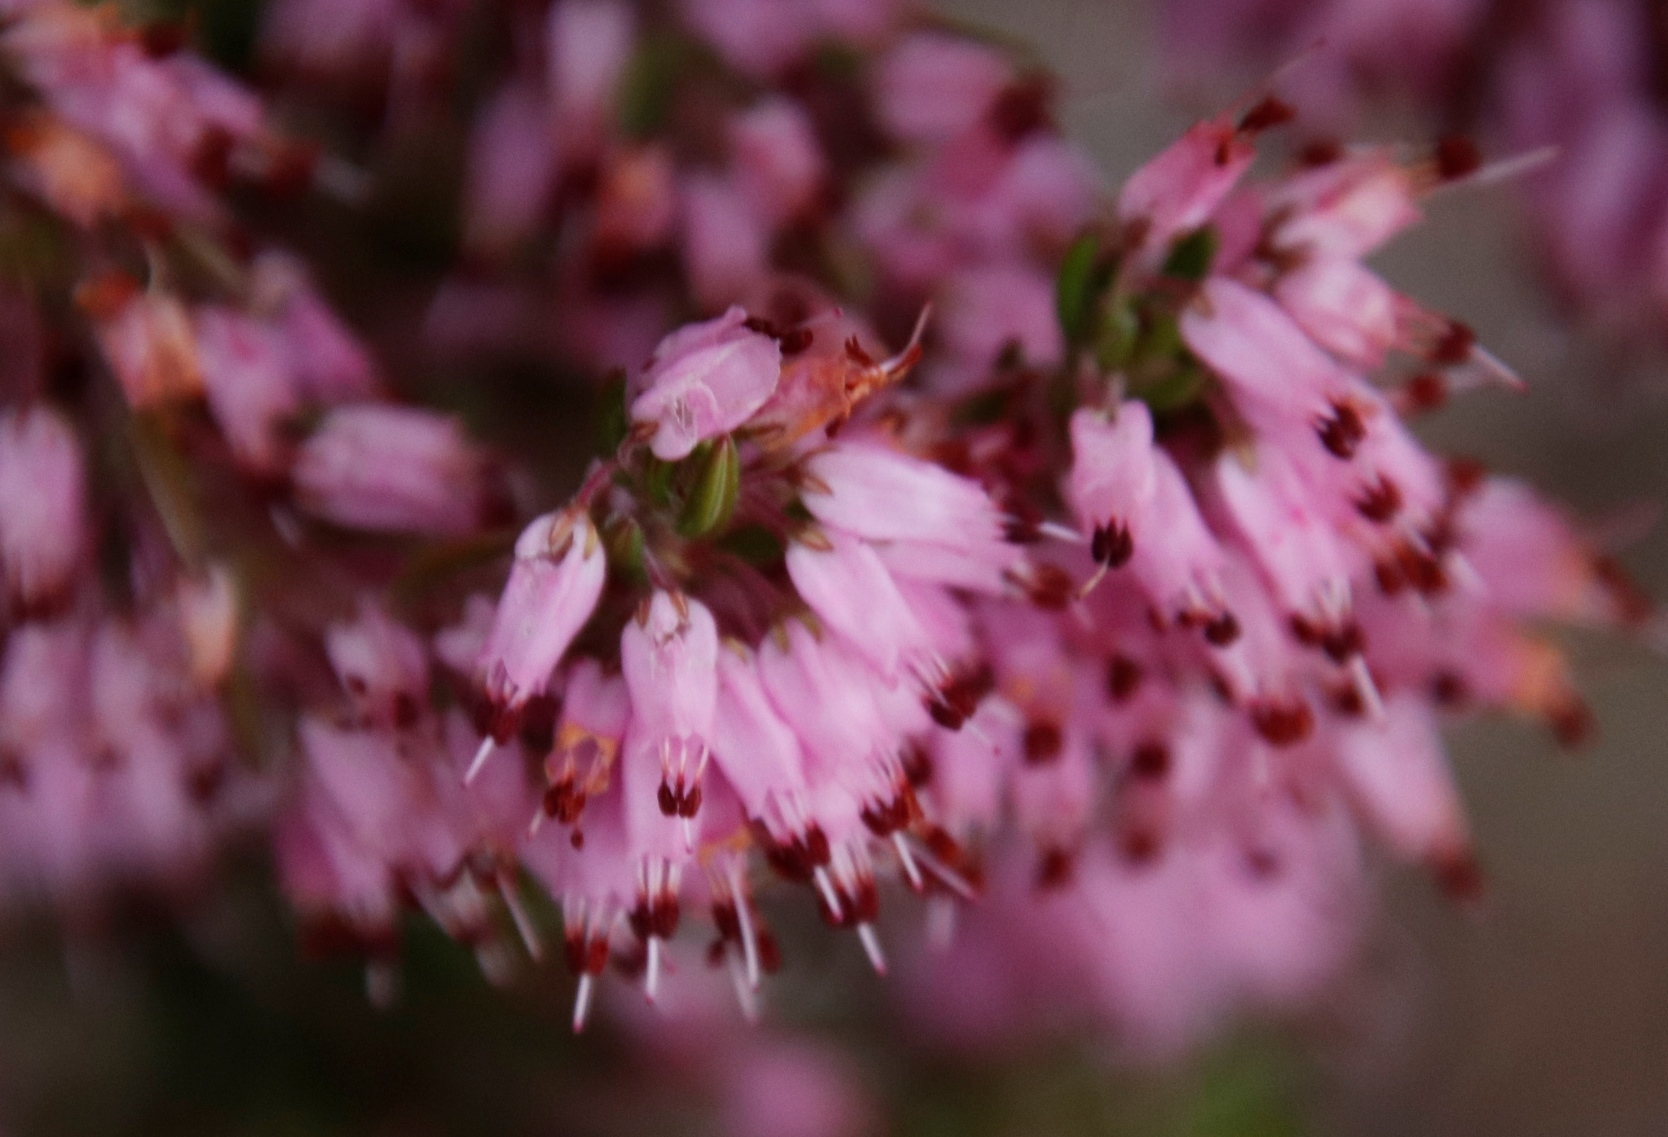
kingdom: Plantae
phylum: Tracheophyta
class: Magnoliopsida
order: Ericales
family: Ericaceae
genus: Erica
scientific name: Erica nudiflora
